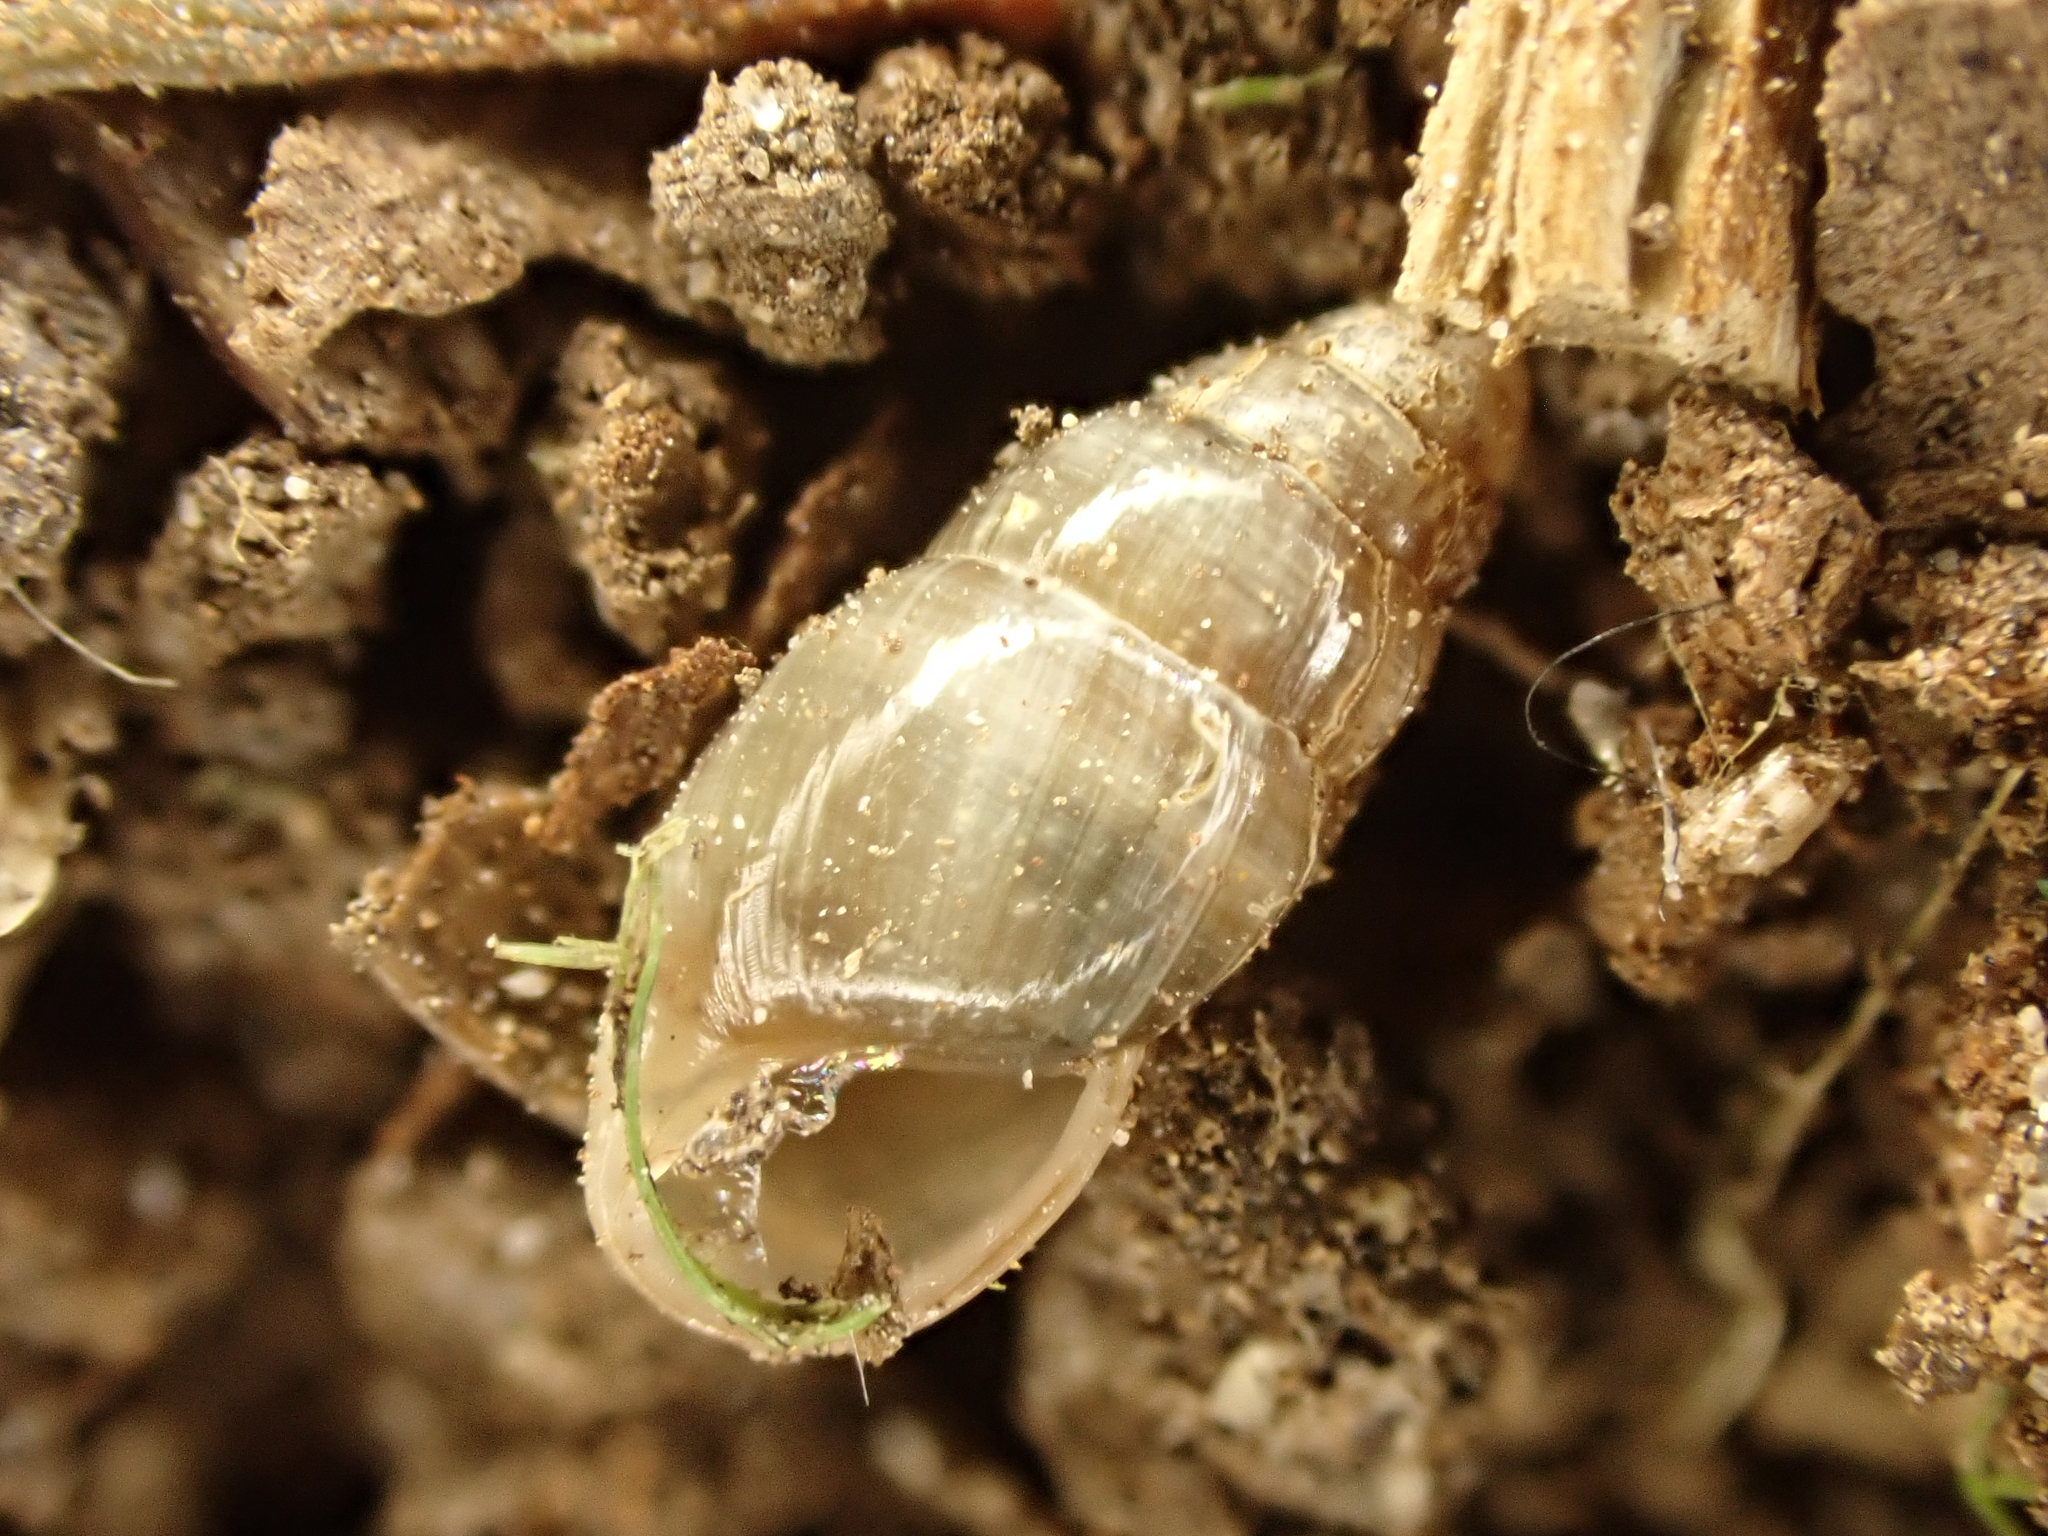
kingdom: Animalia
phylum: Mollusca
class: Gastropoda
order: Stylommatophora
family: Cochlicopidae
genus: Cochlicopa
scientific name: Cochlicopa lubrica
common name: Glossy pillar snail
